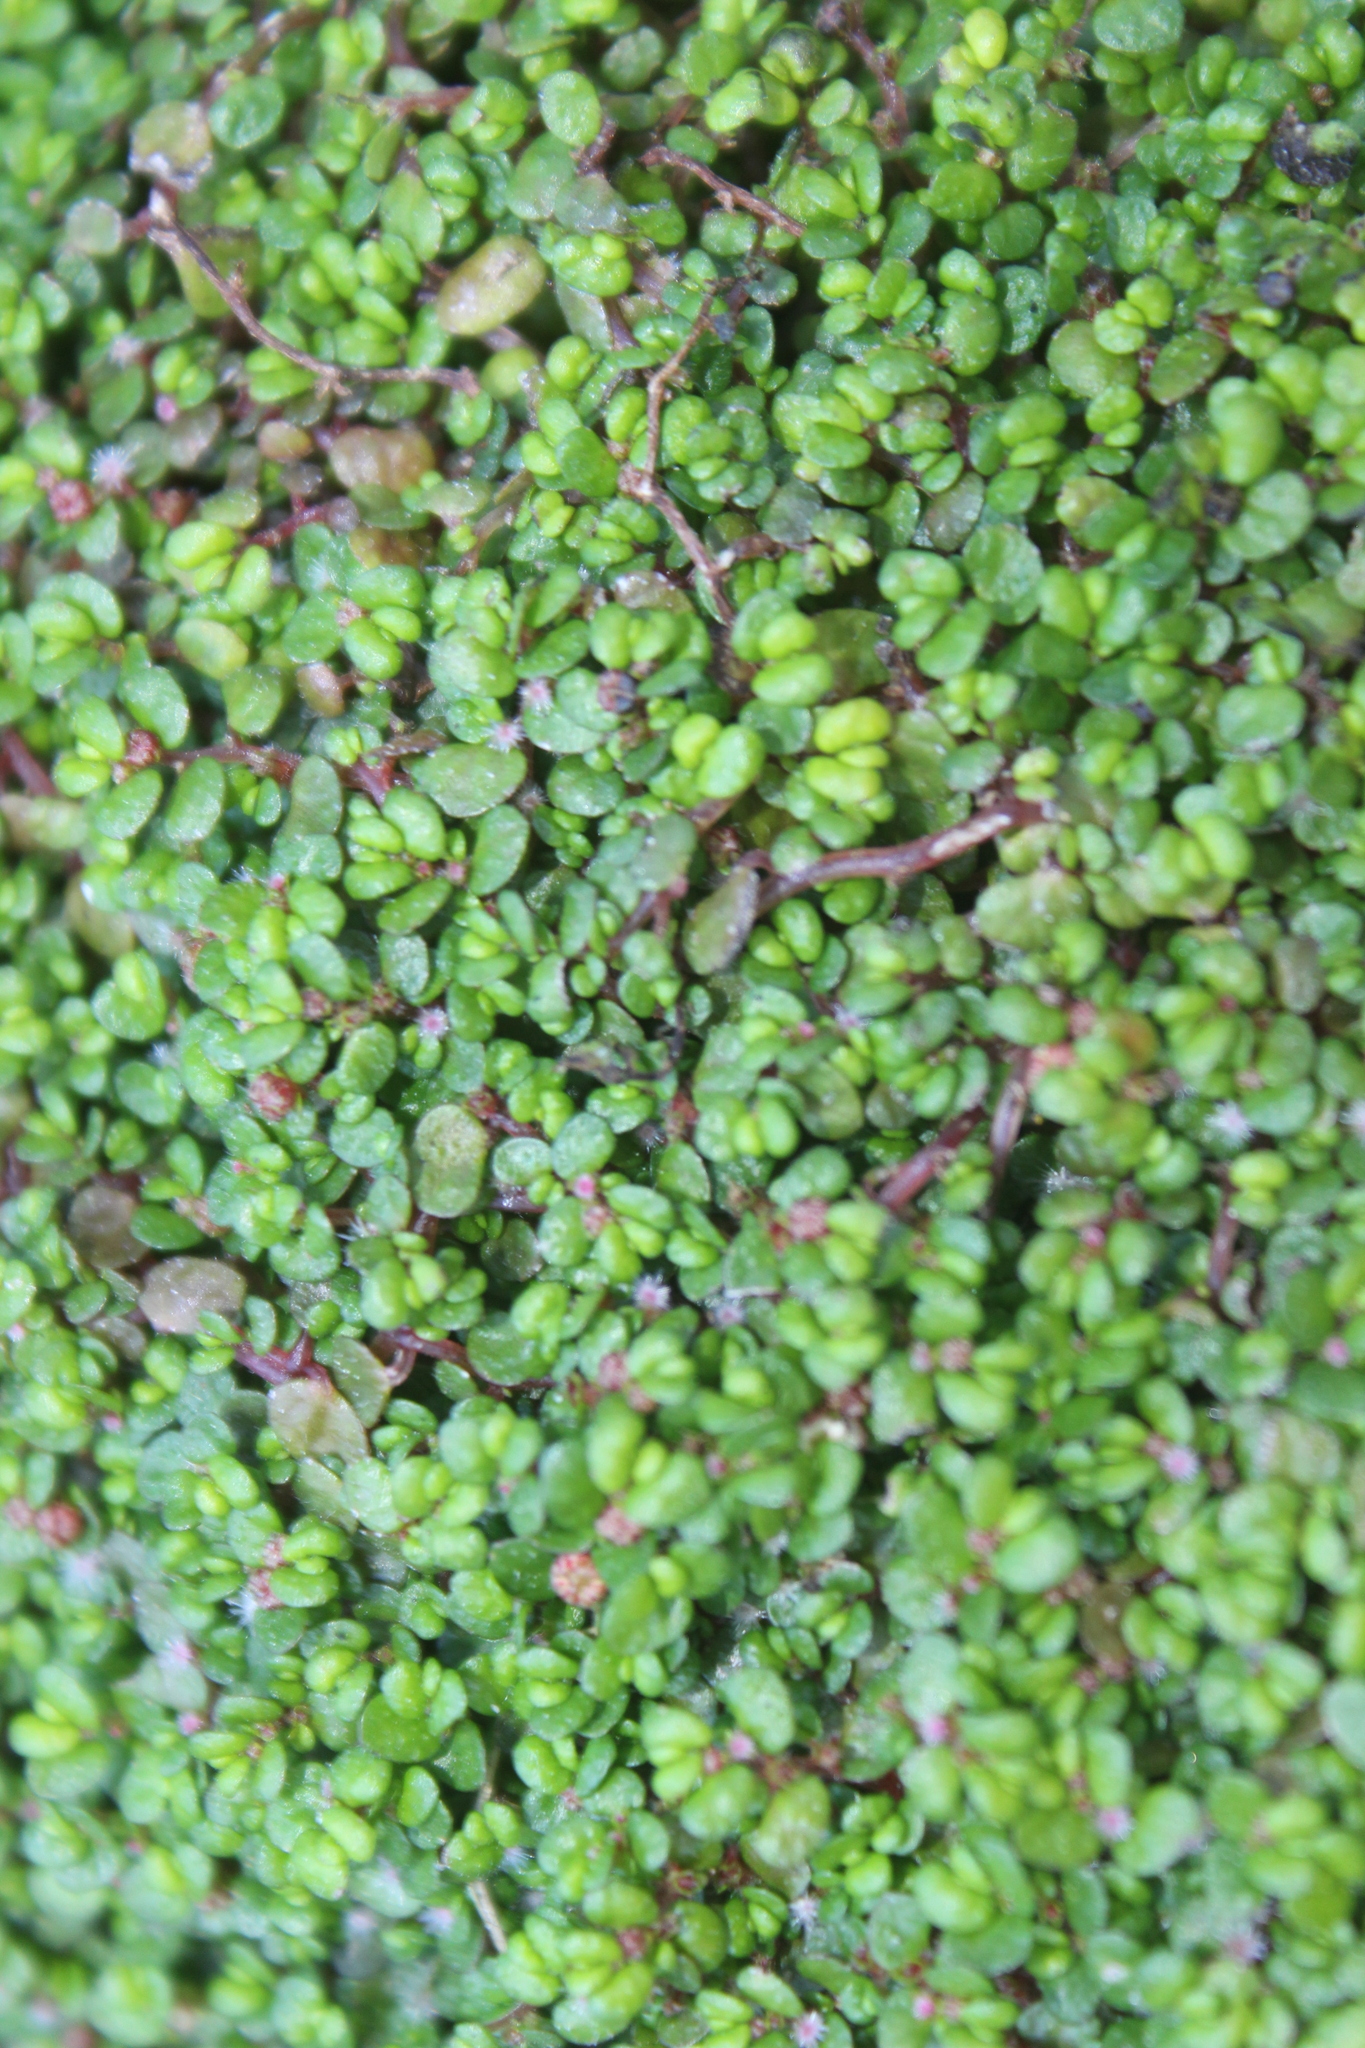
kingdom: Plantae
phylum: Tracheophyta
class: Magnoliopsida
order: Rosales
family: Urticaceae
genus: Soleirolia
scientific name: Soleirolia soleirolii
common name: Mind-your-own-business
